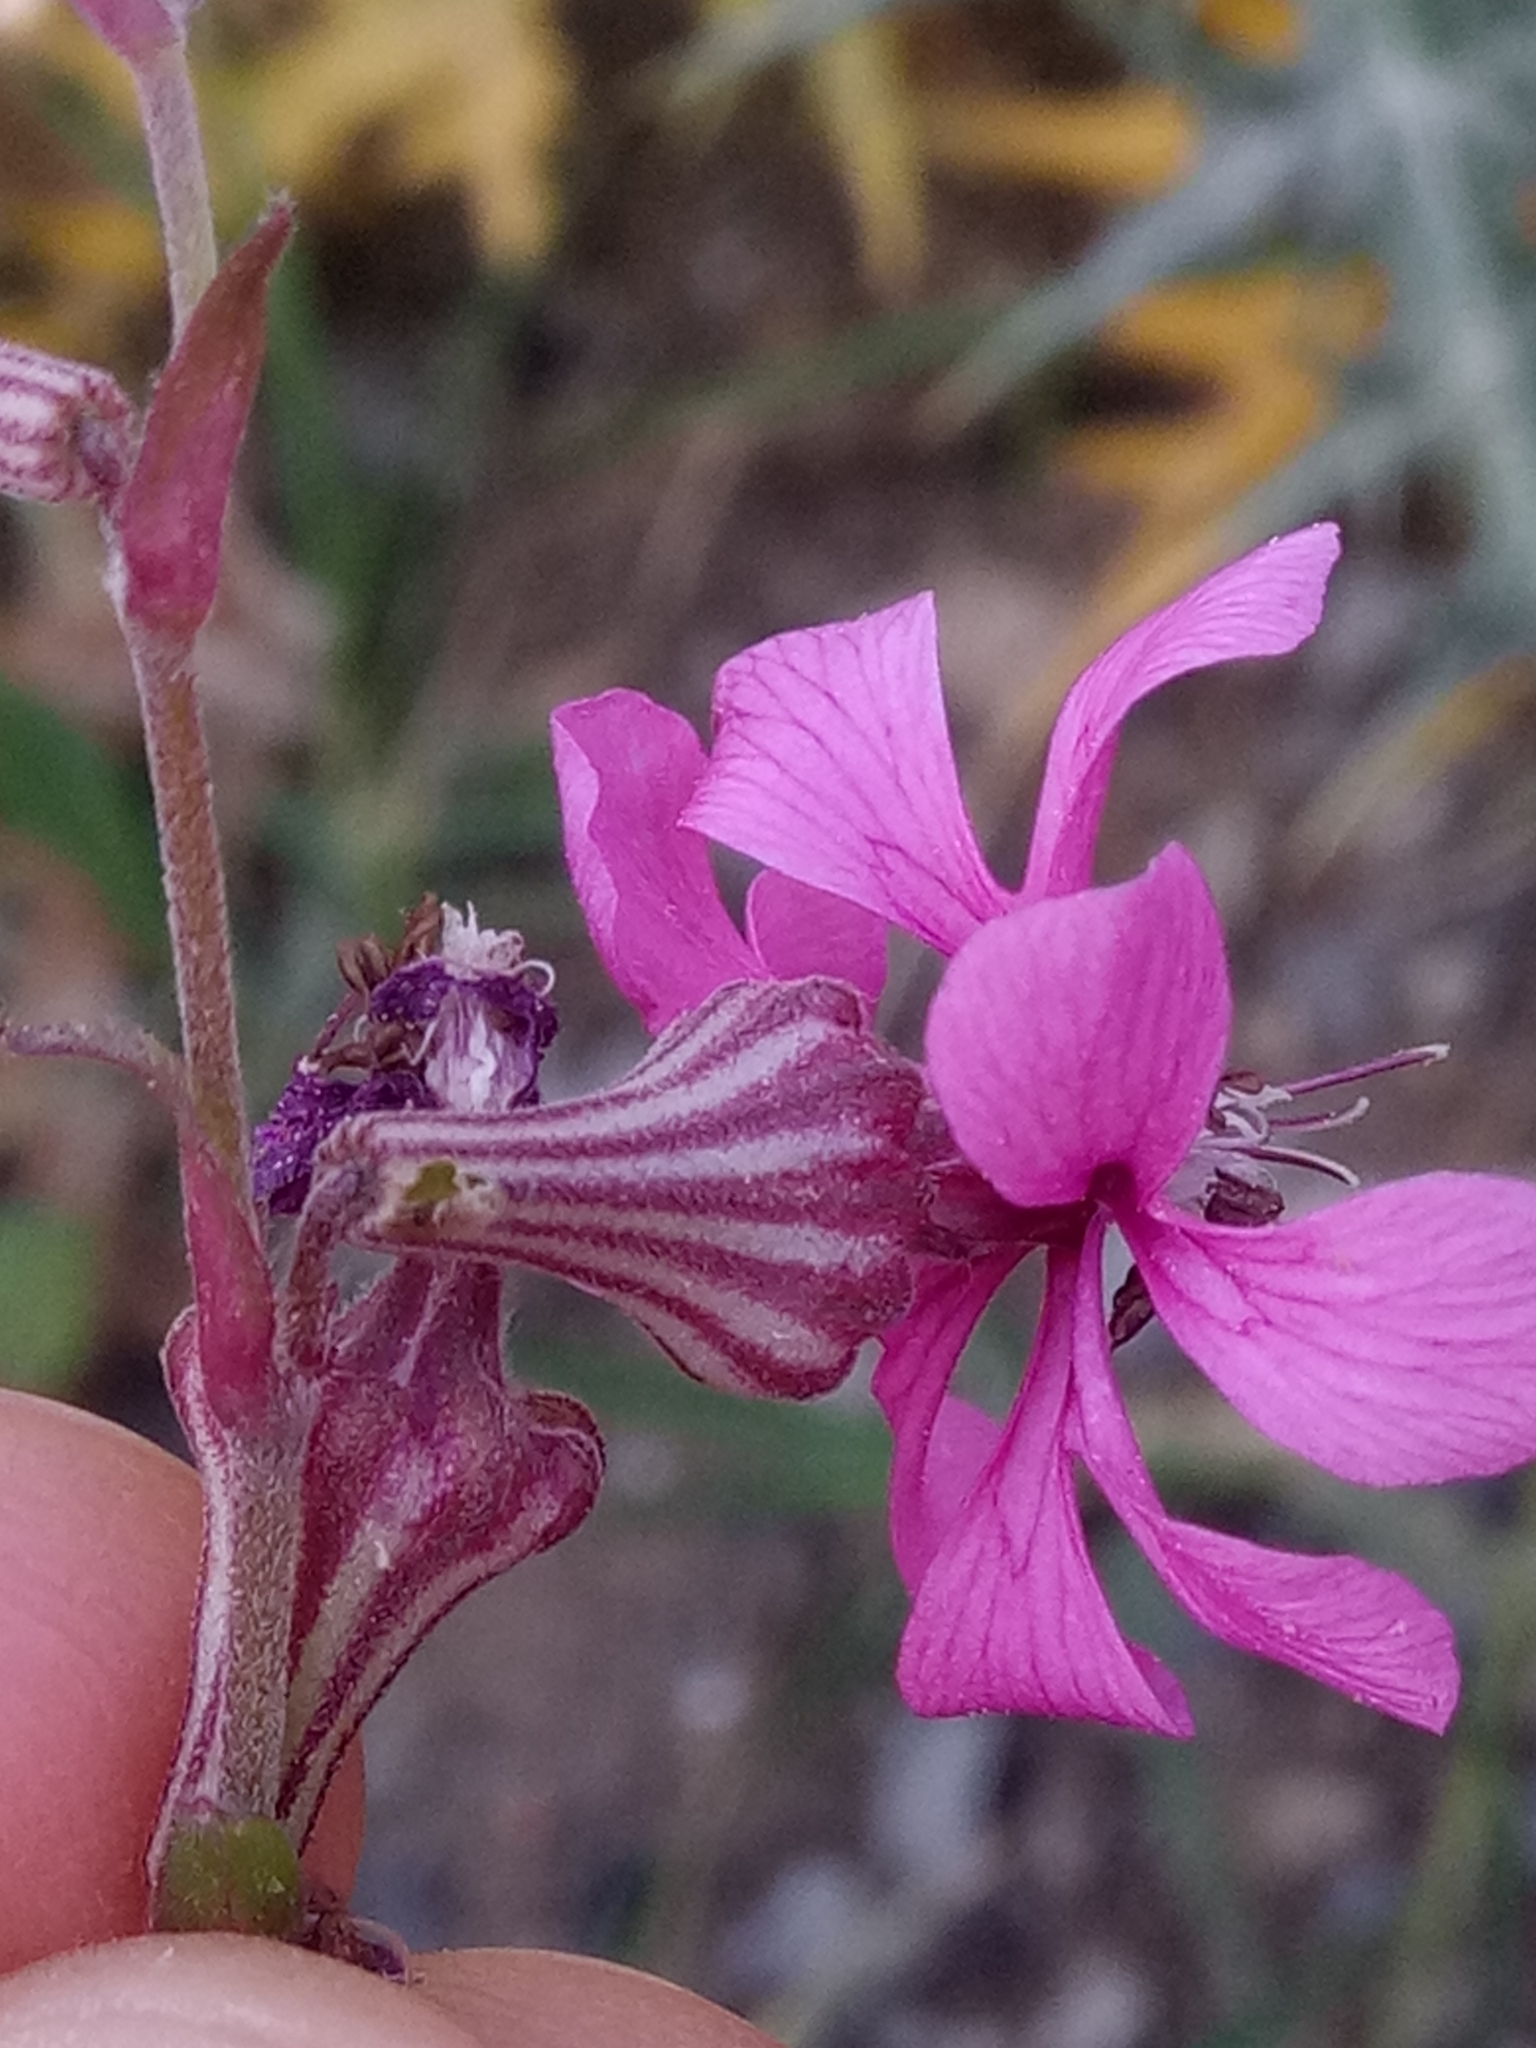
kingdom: Plantae
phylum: Tracheophyta
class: Magnoliopsida
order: Caryophyllales
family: Caryophyllaceae
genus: Silene
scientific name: Silene secundiflora
